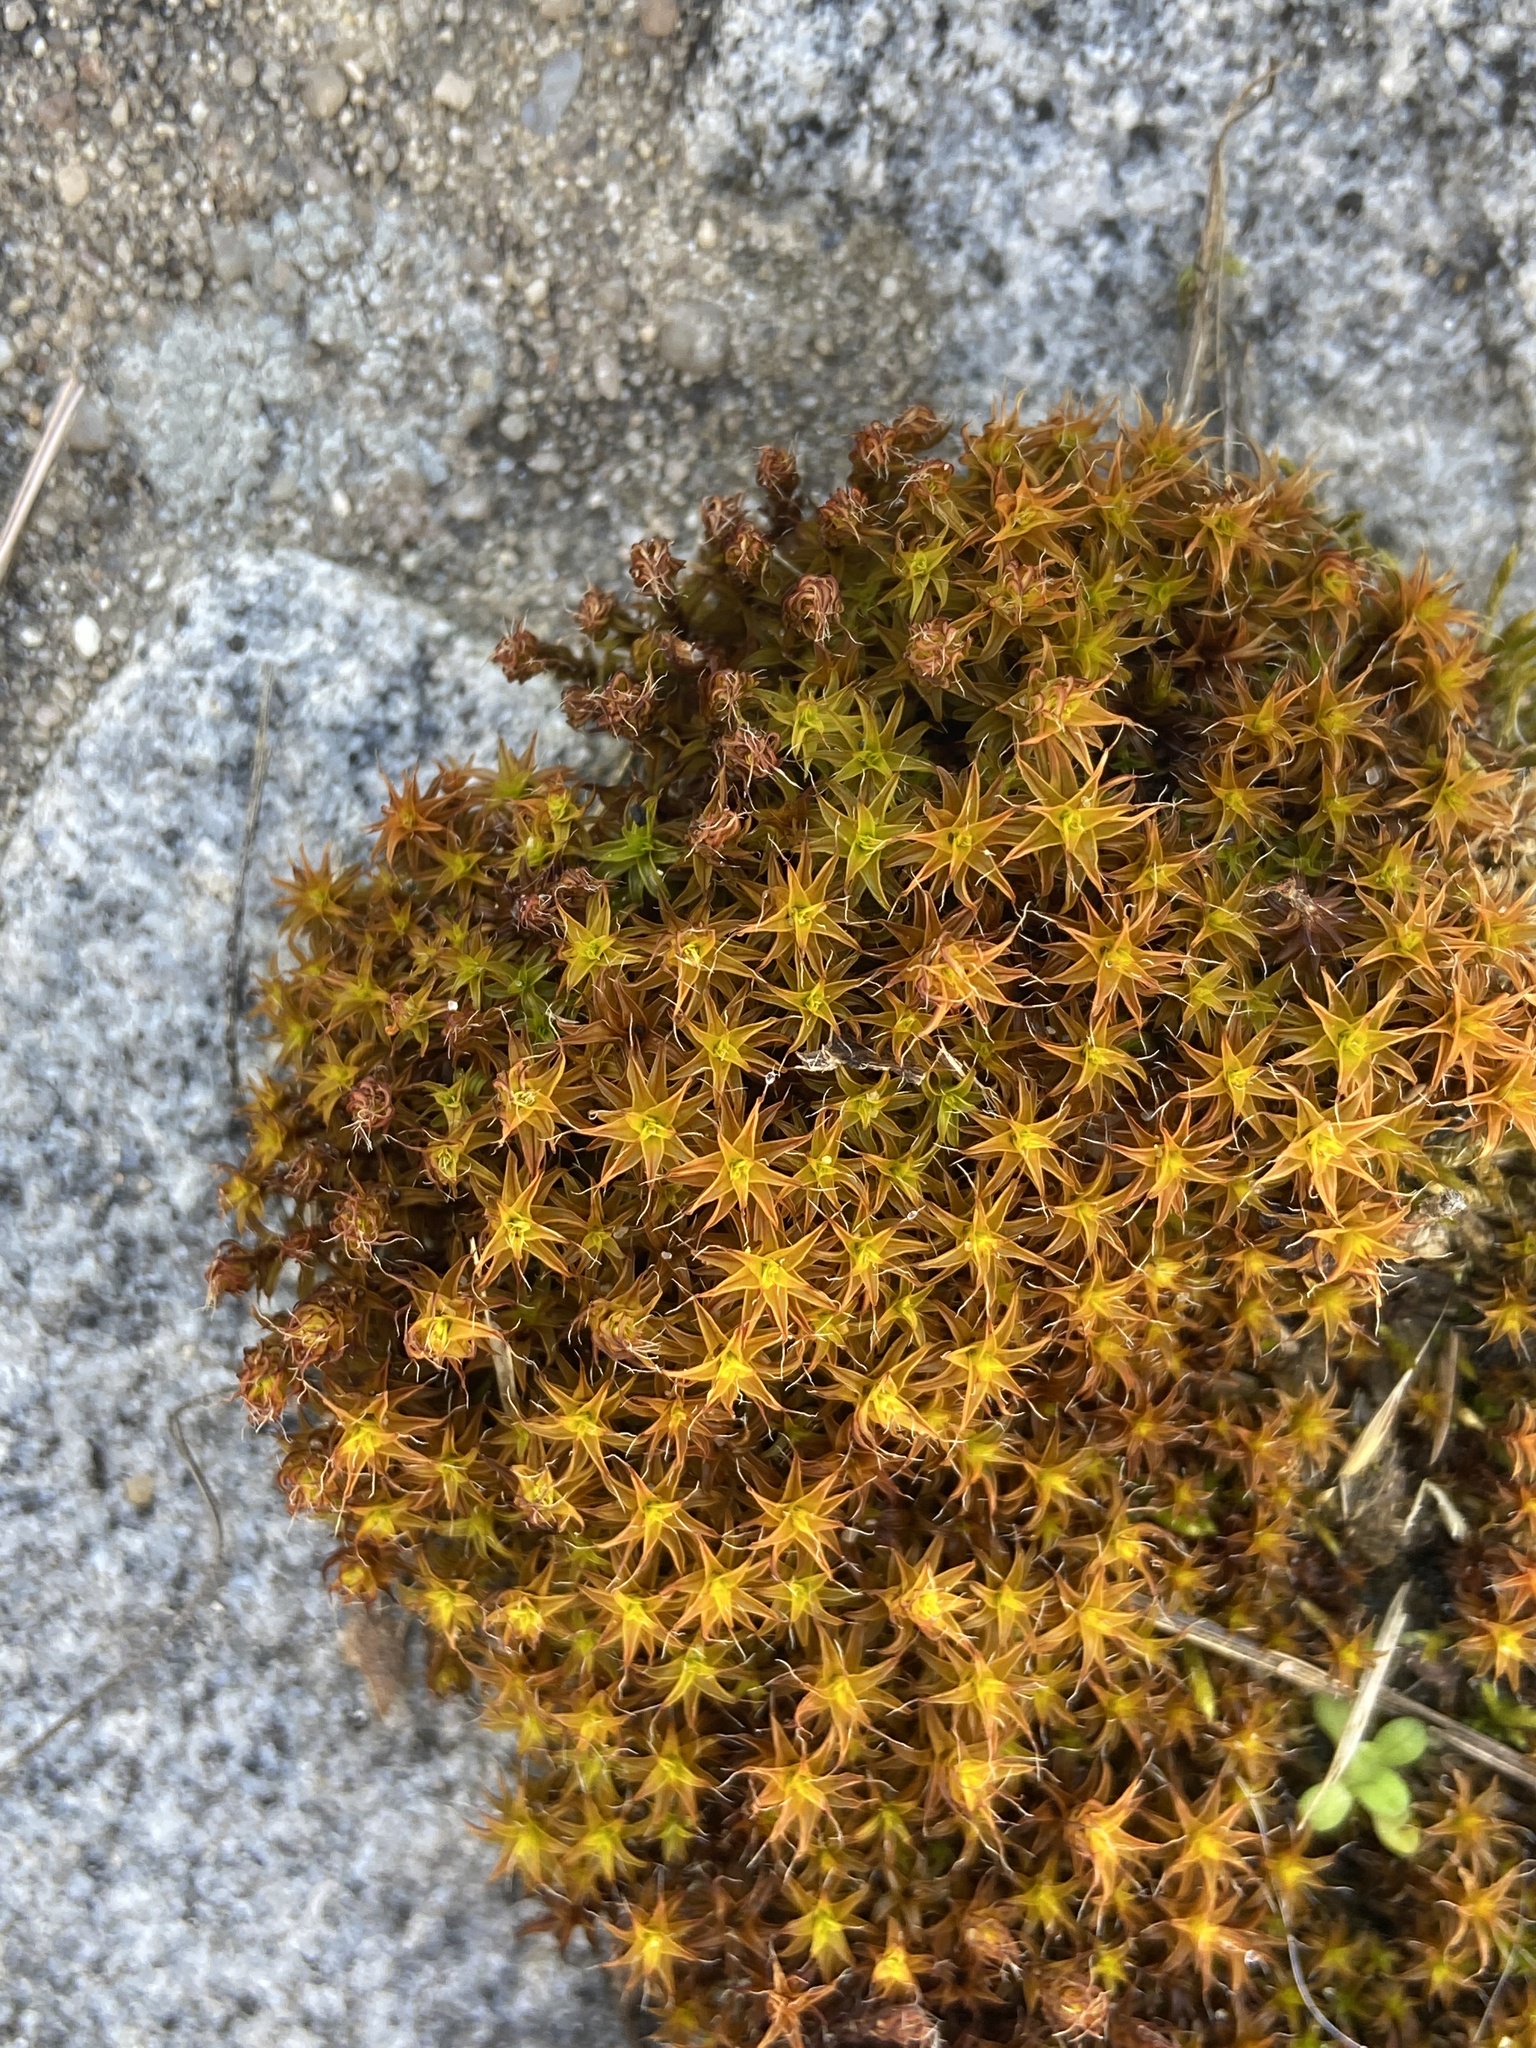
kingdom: Plantae
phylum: Bryophyta
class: Bryopsida
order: Pottiales
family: Pottiaceae
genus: Syntrichia
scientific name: Syntrichia ruralis
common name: Sidewalk screw moss
